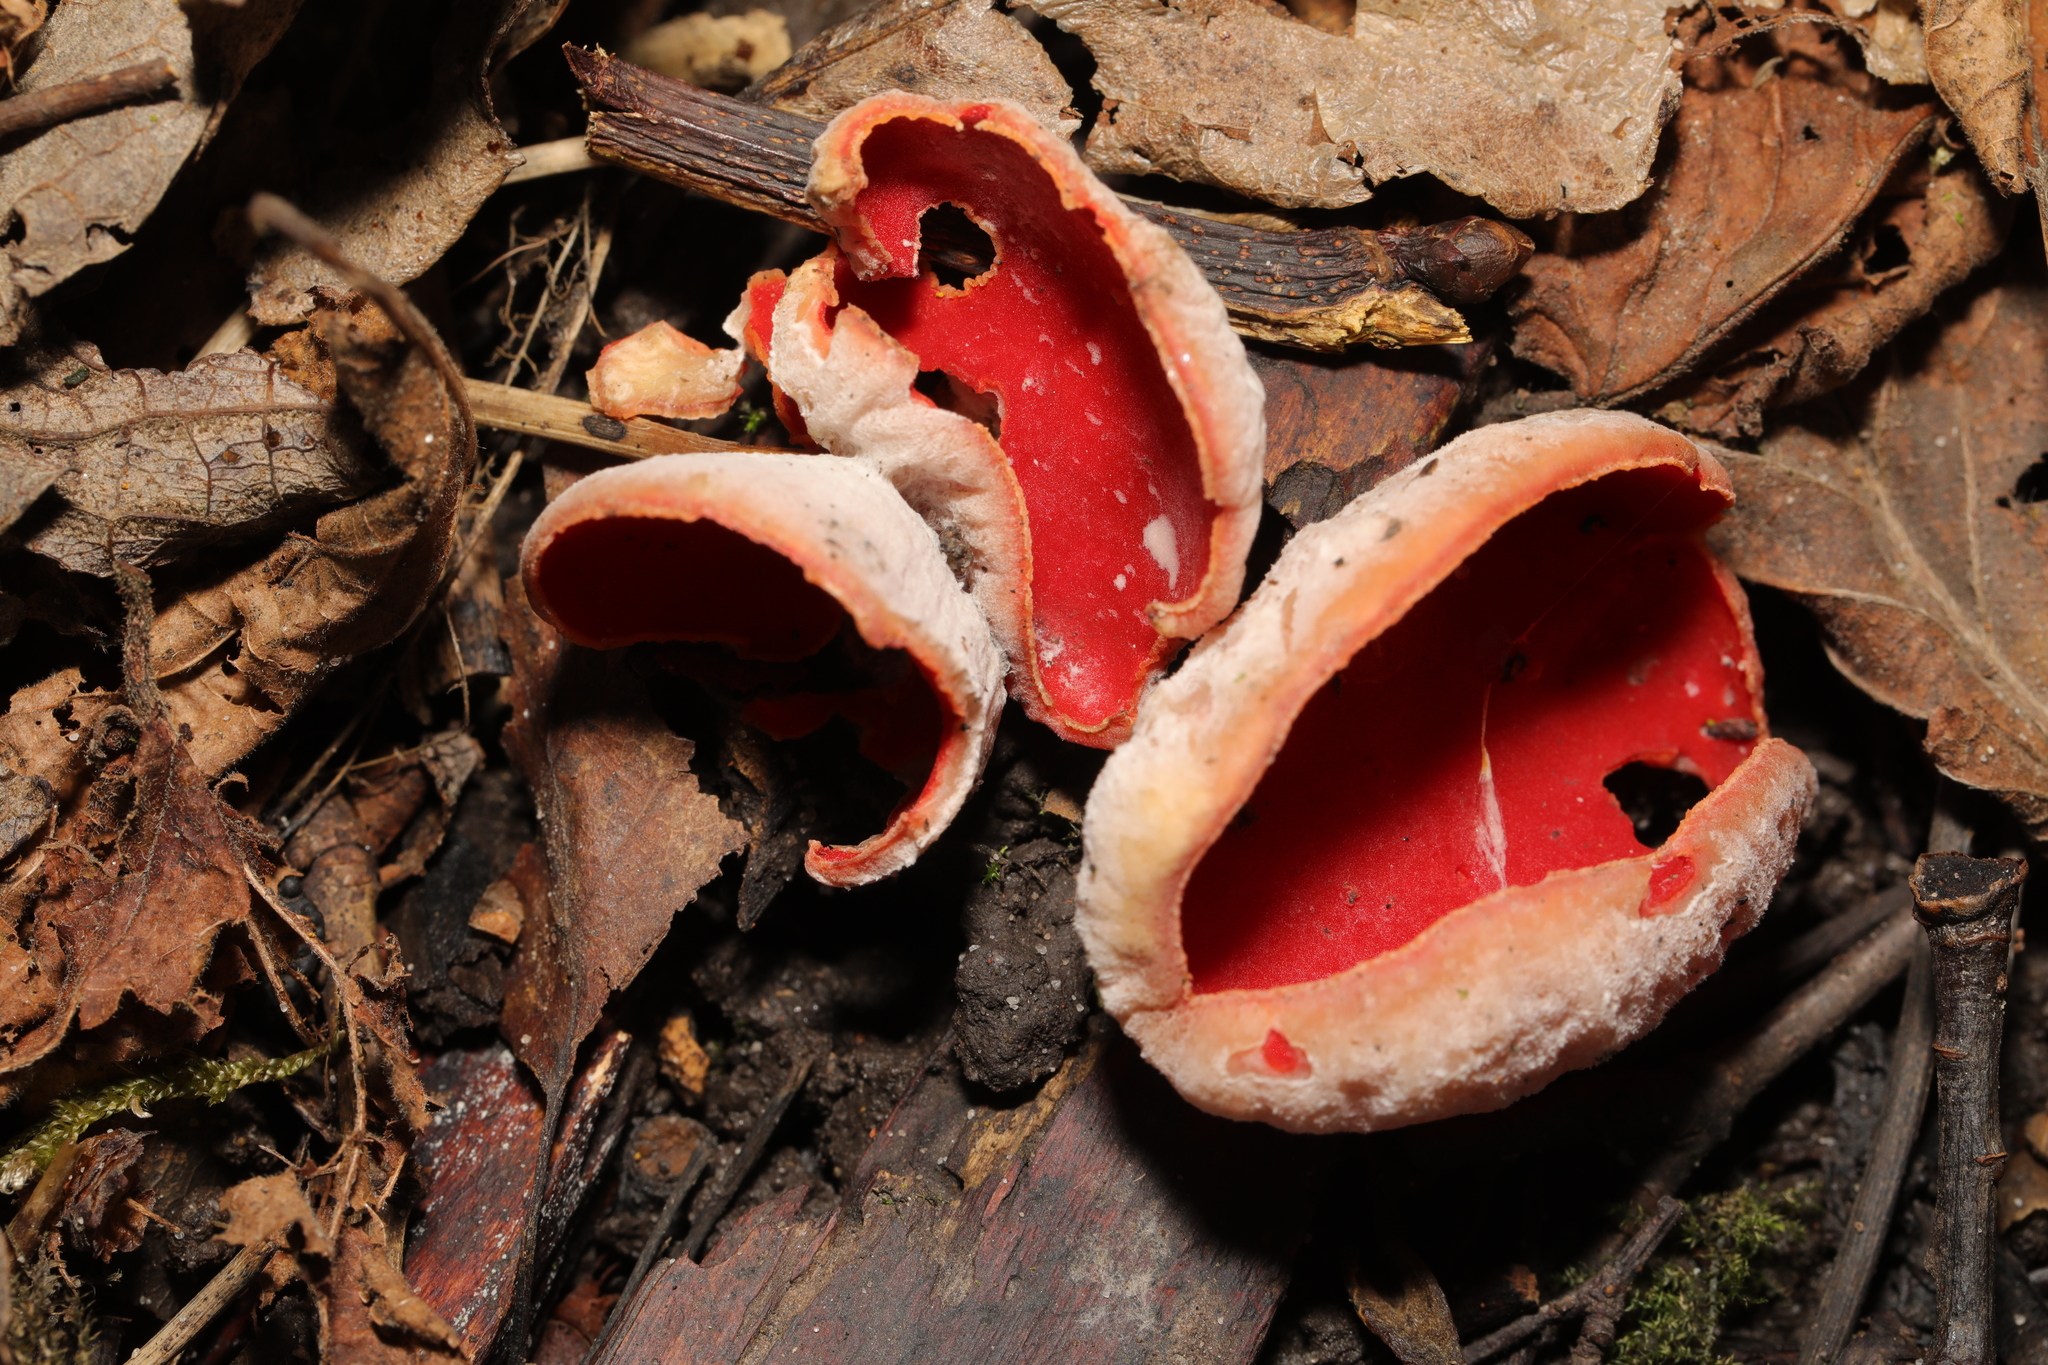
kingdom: Fungi
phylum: Ascomycota
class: Pezizomycetes
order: Pezizales
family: Sarcoscyphaceae
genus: Sarcoscypha
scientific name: Sarcoscypha
